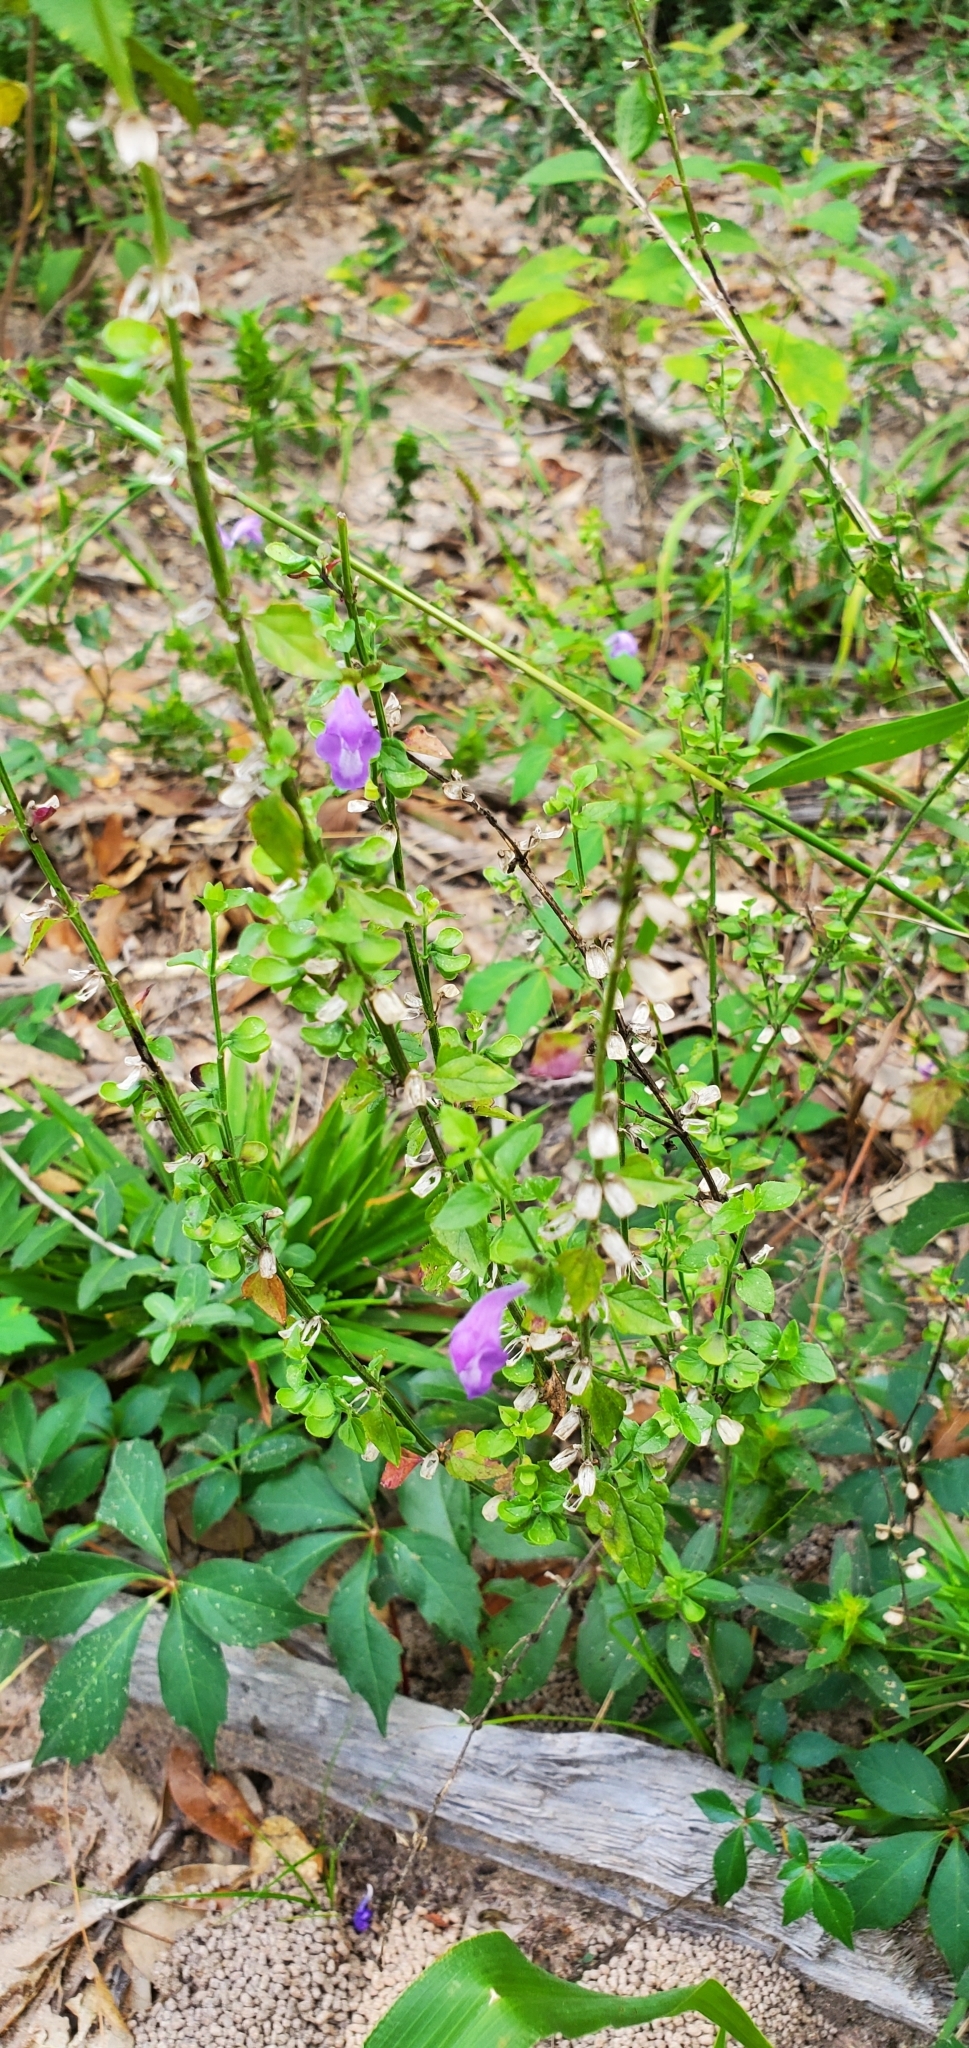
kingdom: Plantae
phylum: Tracheophyta
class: Magnoliopsida
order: Lamiales
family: Lamiaceae
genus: Scutellaria
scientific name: Scutellaria cardiophylla
